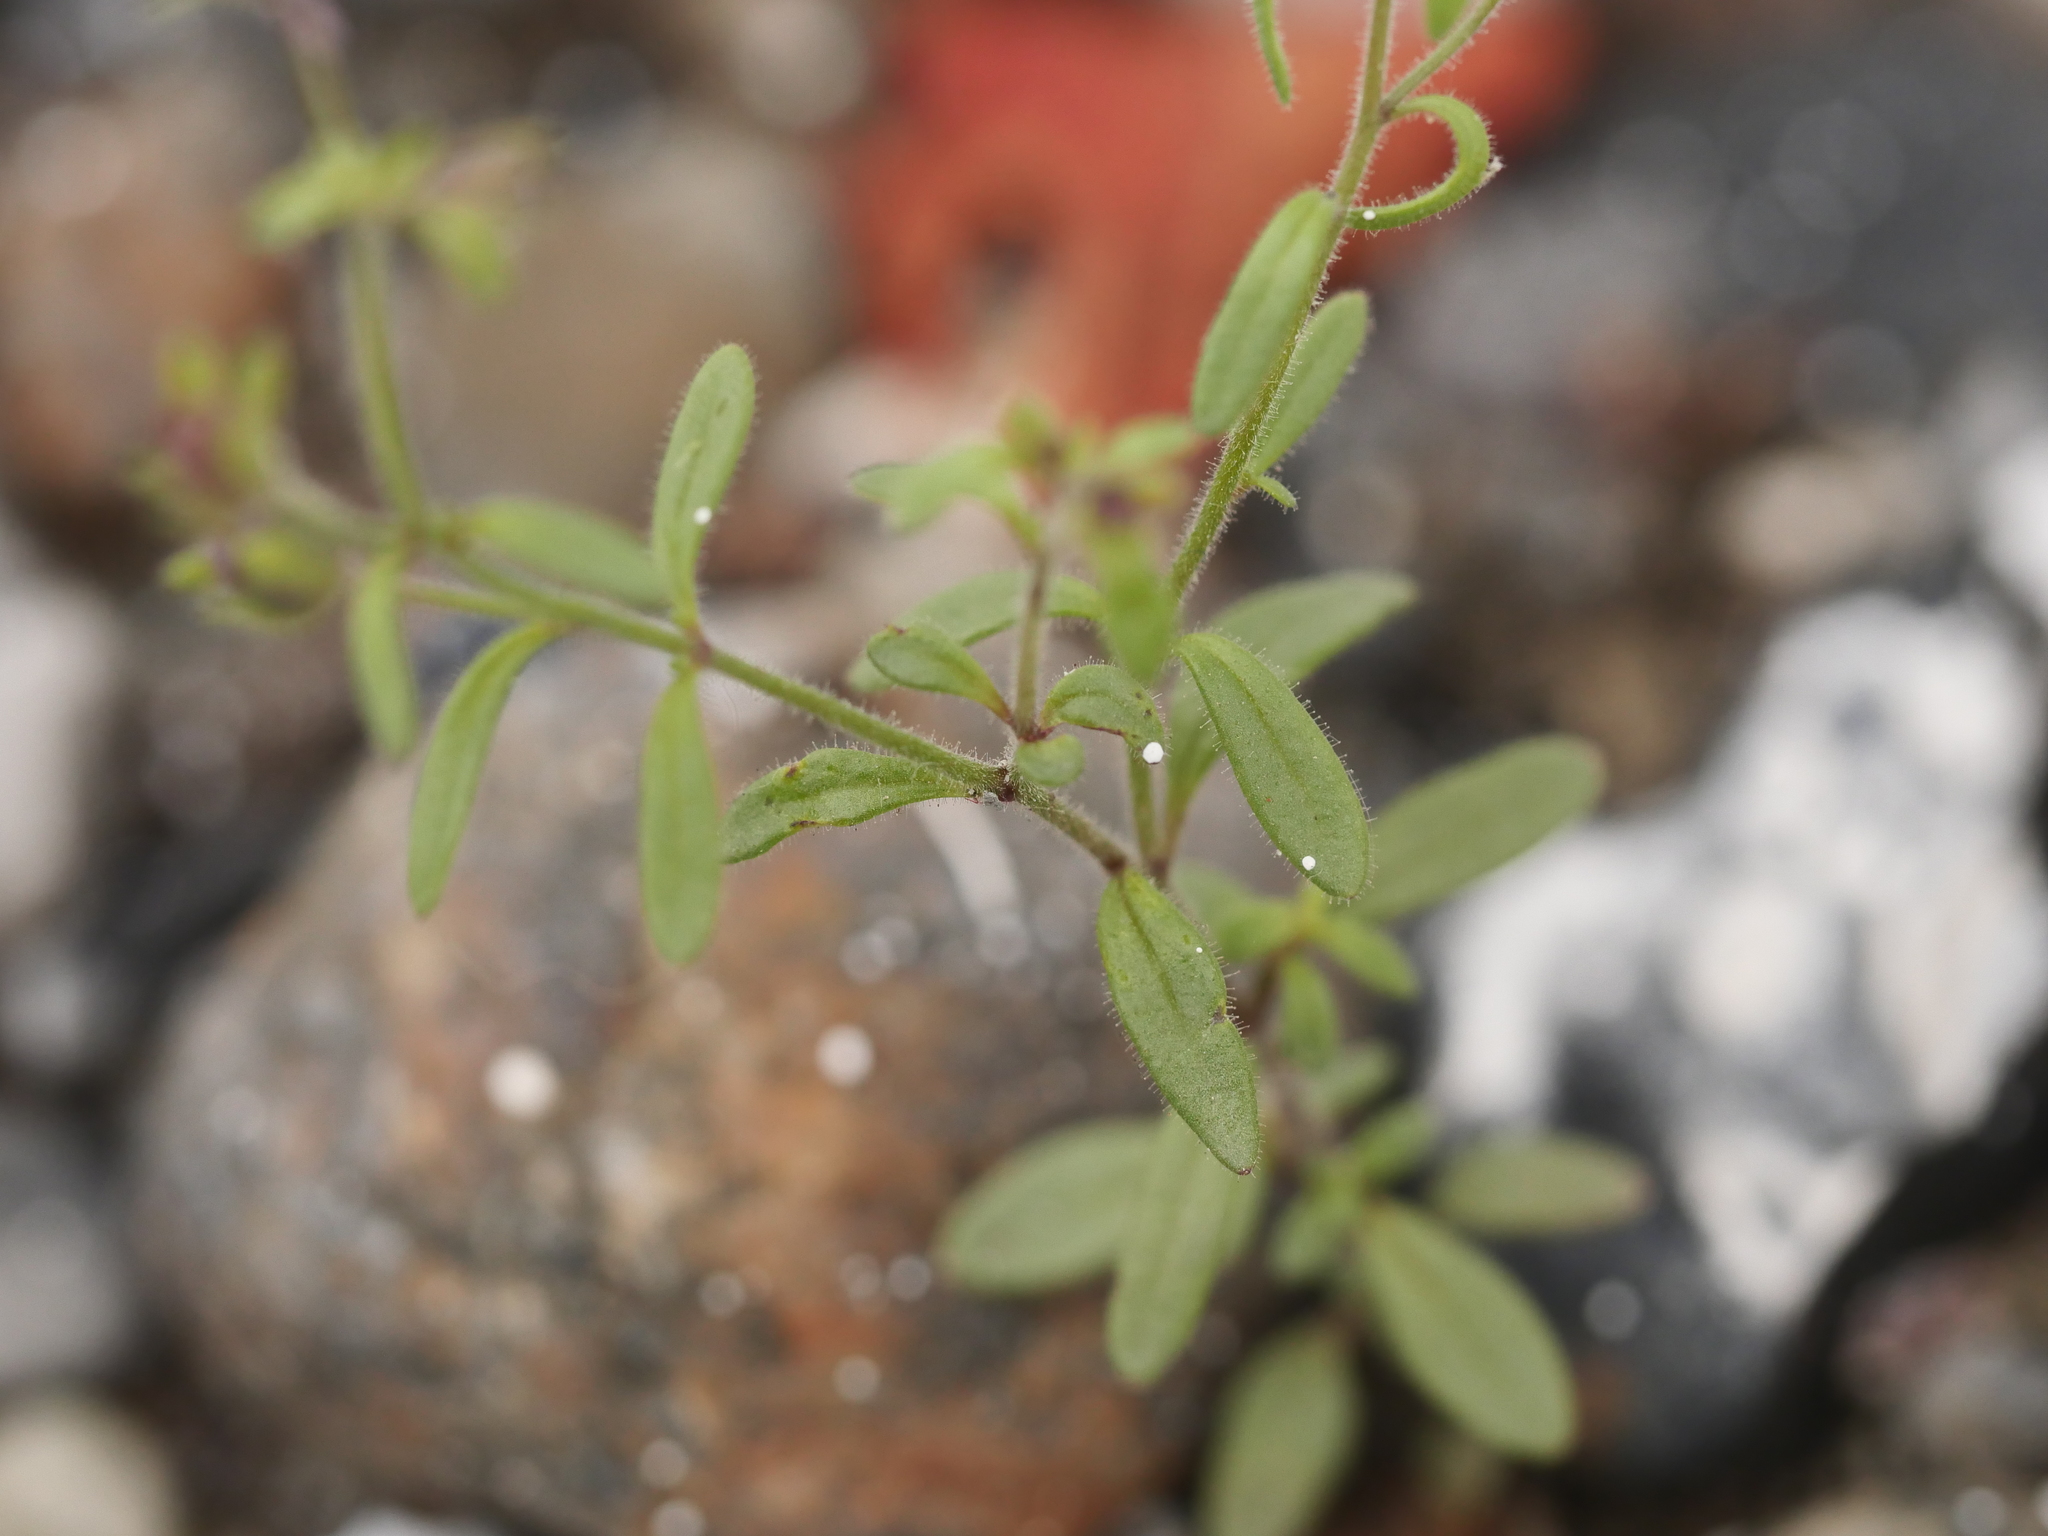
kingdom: Plantae
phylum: Tracheophyta
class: Magnoliopsida
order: Lamiales
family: Plantaginaceae
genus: Chaenorhinum
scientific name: Chaenorhinum minus
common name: Dwarf snapdragon
